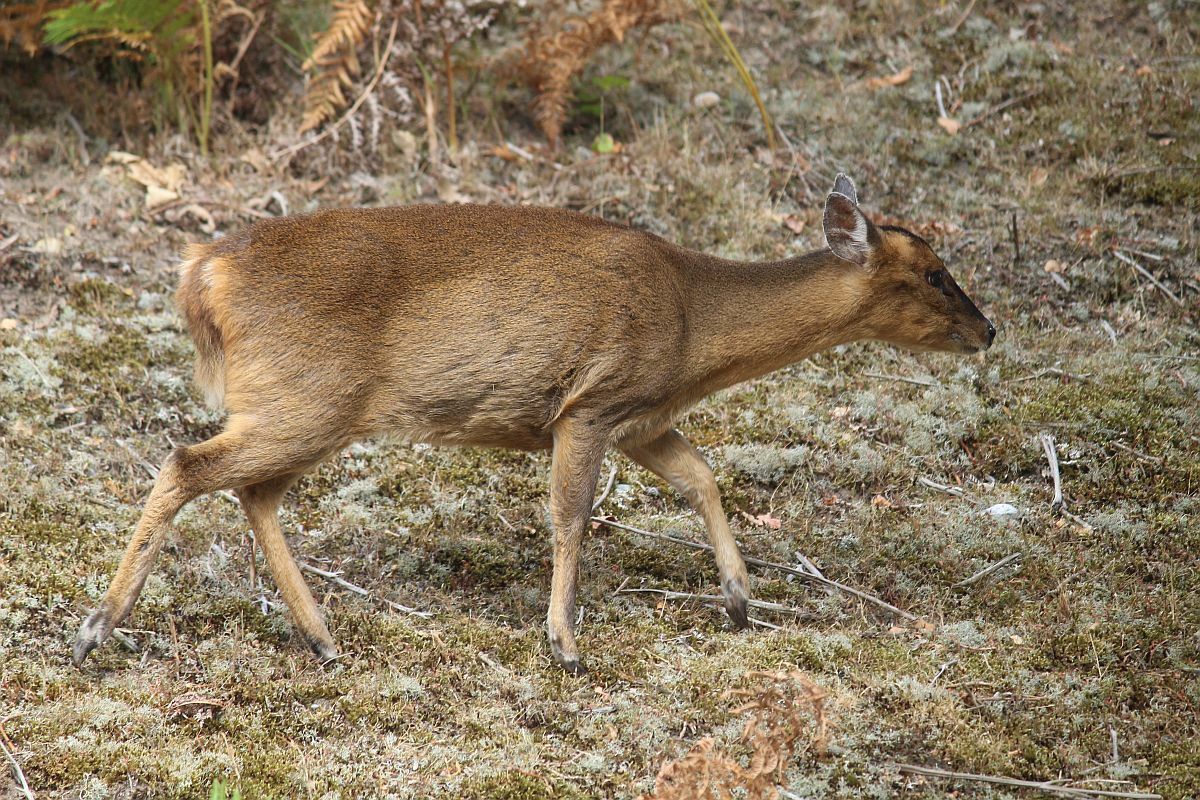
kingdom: Animalia
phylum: Chordata
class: Mammalia
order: Artiodactyla
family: Cervidae
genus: Muntiacus
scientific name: Muntiacus reevesi
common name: Reeves' muntjac
